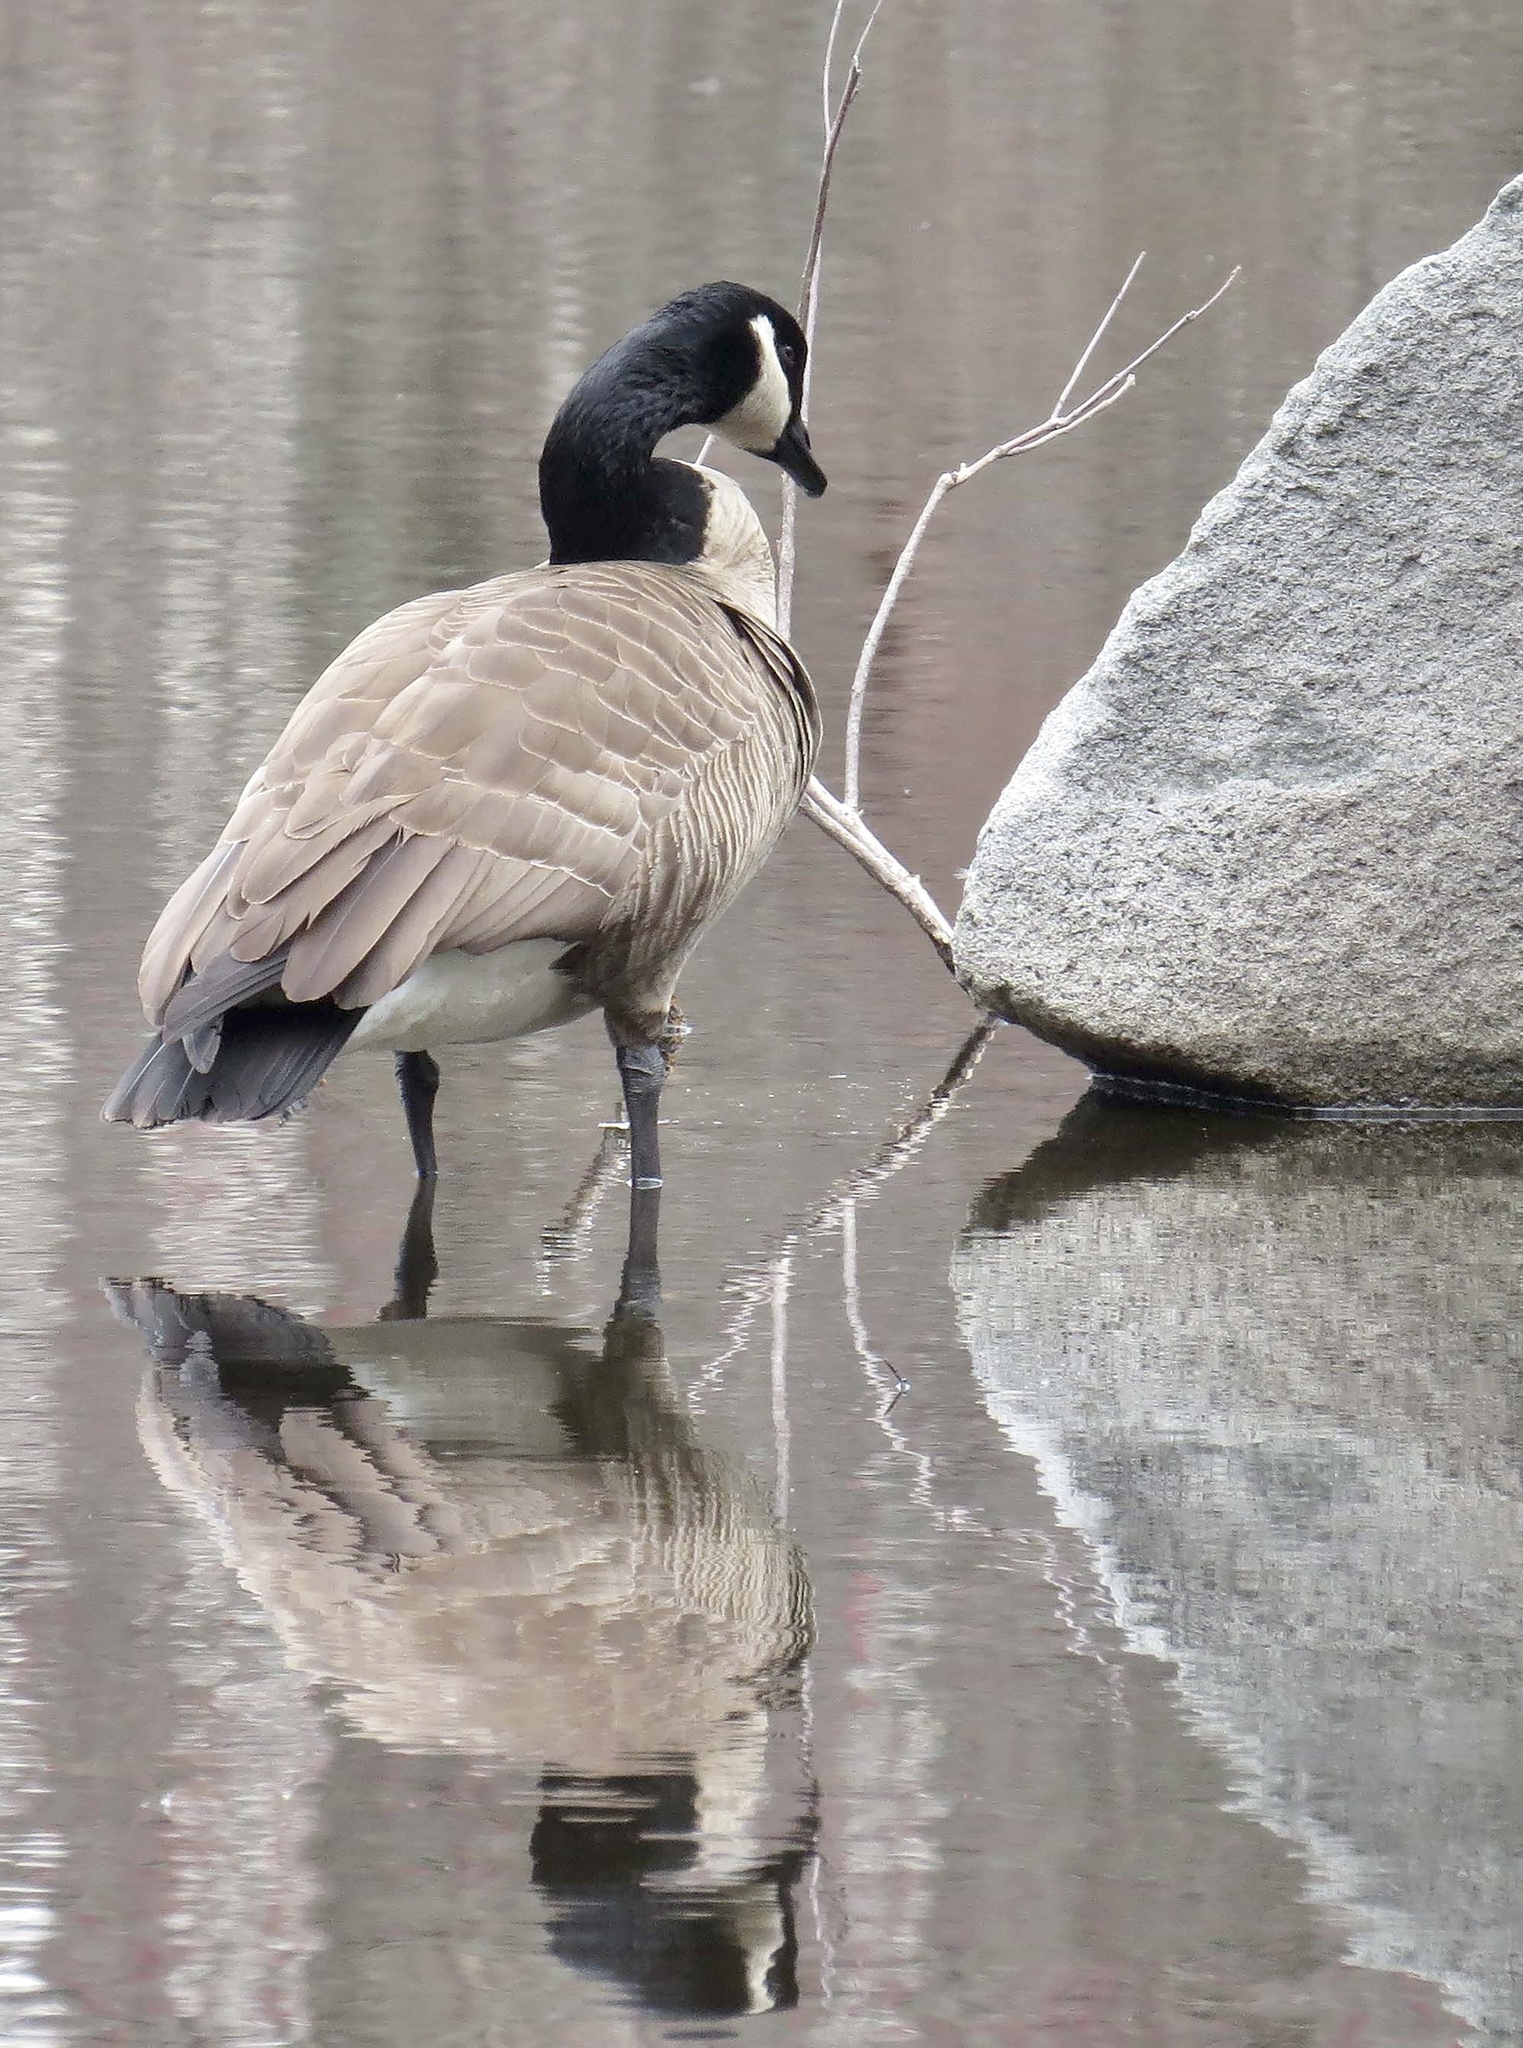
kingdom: Animalia
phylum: Chordata
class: Aves
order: Anseriformes
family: Anatidae
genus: Branta
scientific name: Branta canadensis
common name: Canada goose
